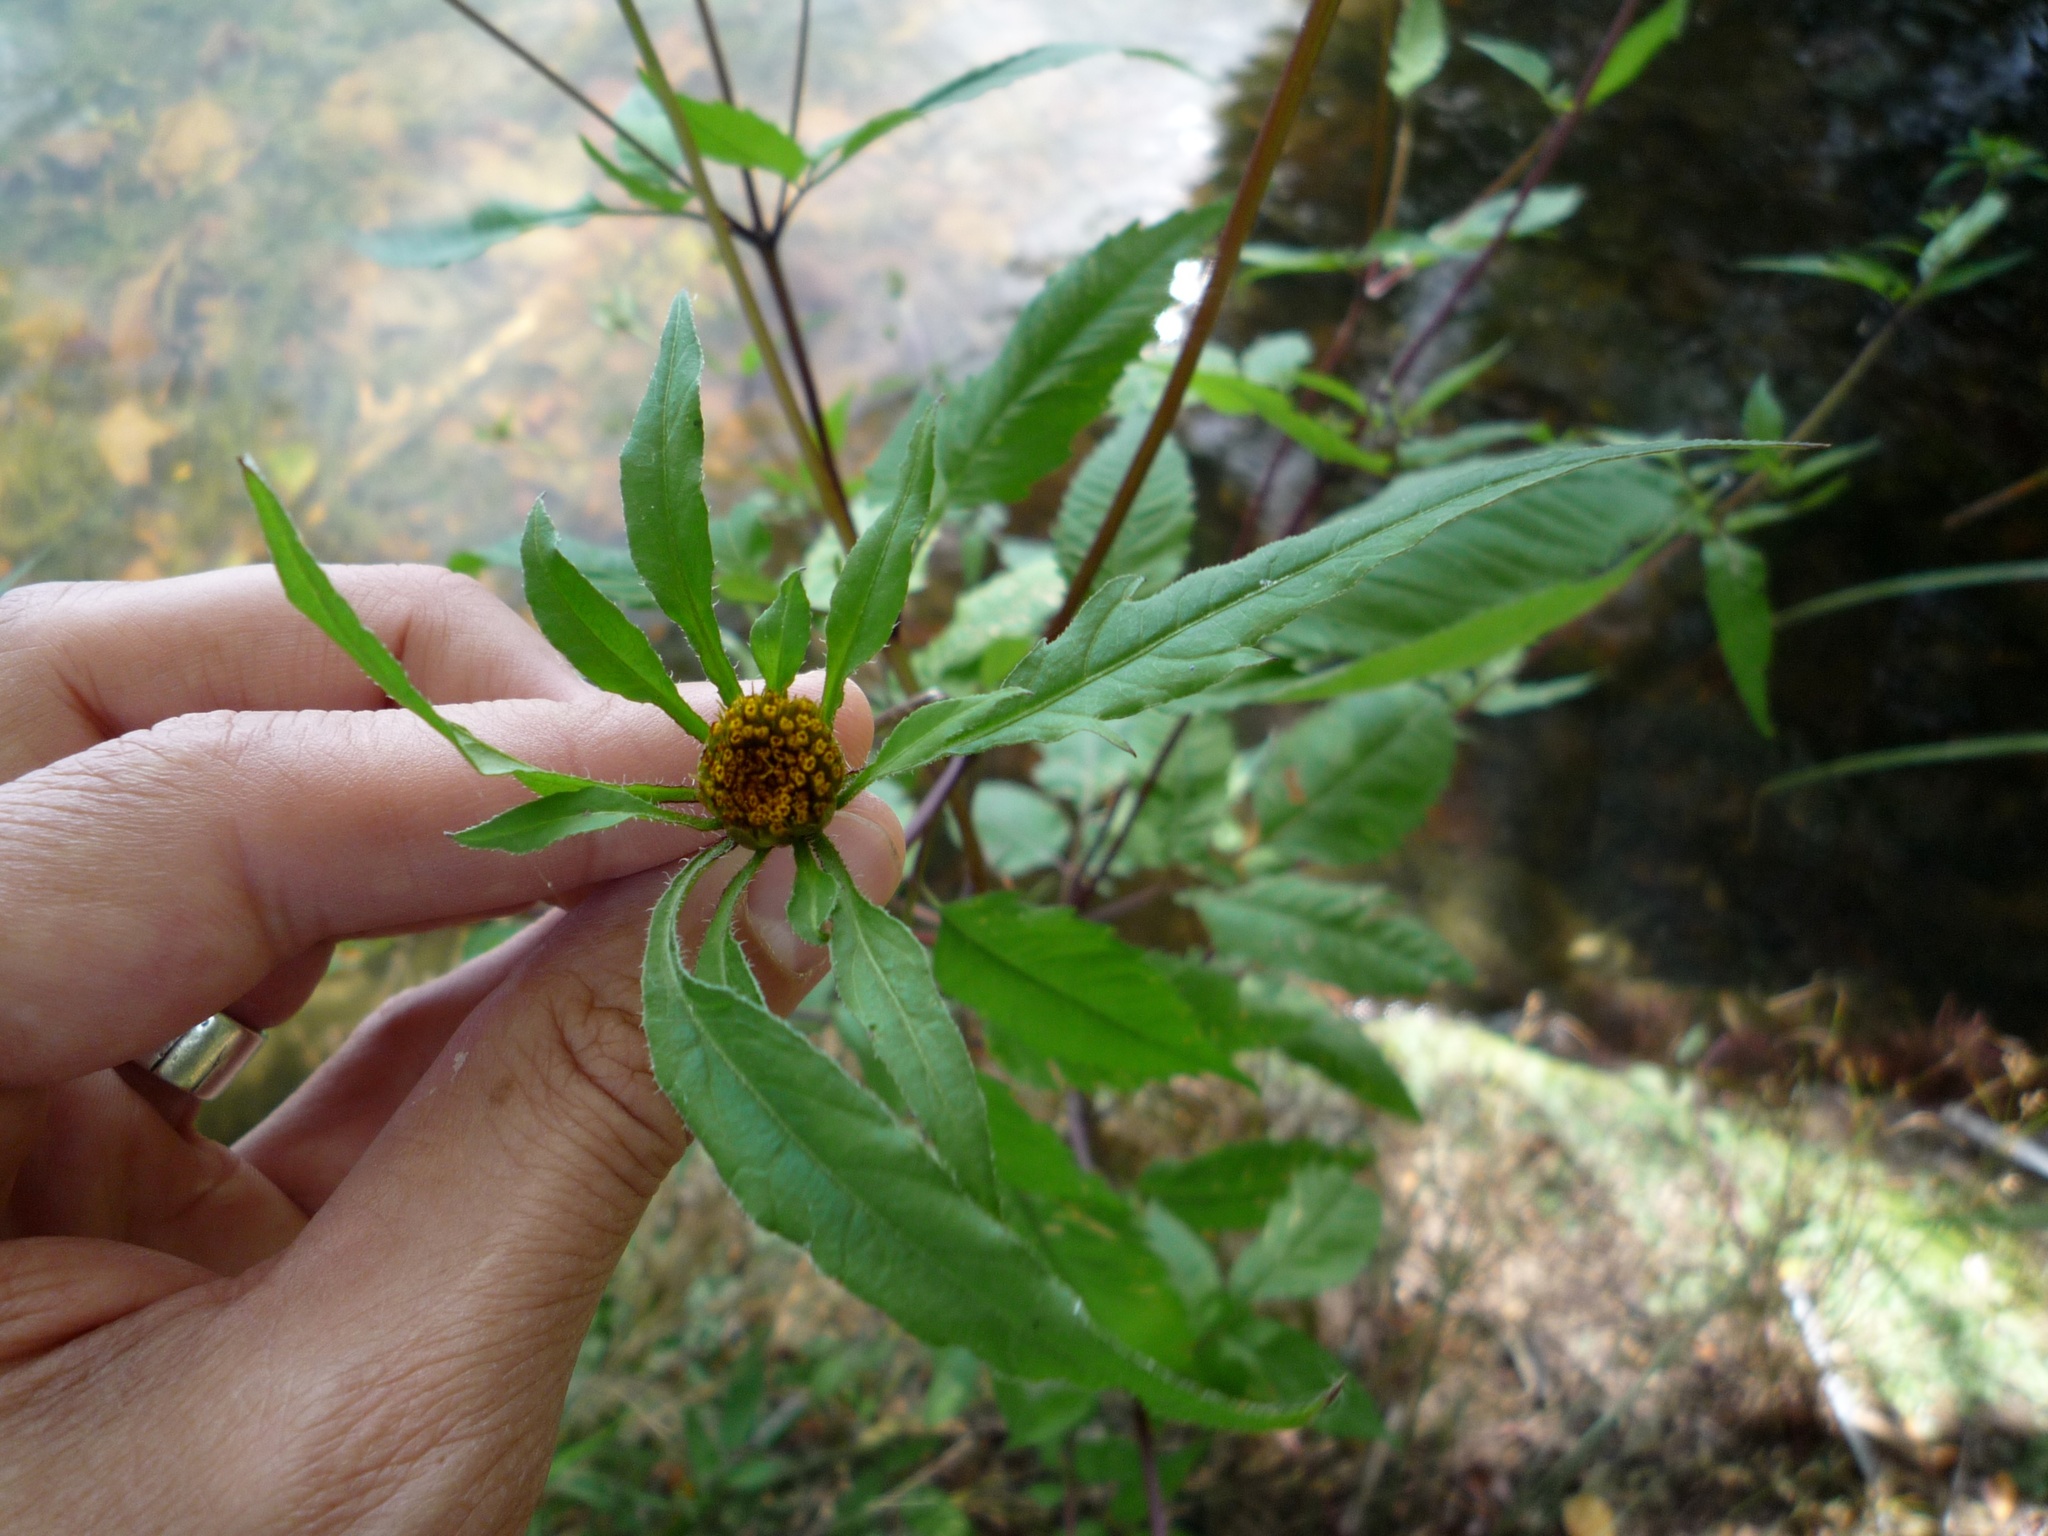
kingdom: Plantae
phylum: Tracheophyta
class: Magnoliopsida
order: Asterales
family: Asteraceae
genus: Bidens
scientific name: Bidens frondosa
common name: Beggarticks
